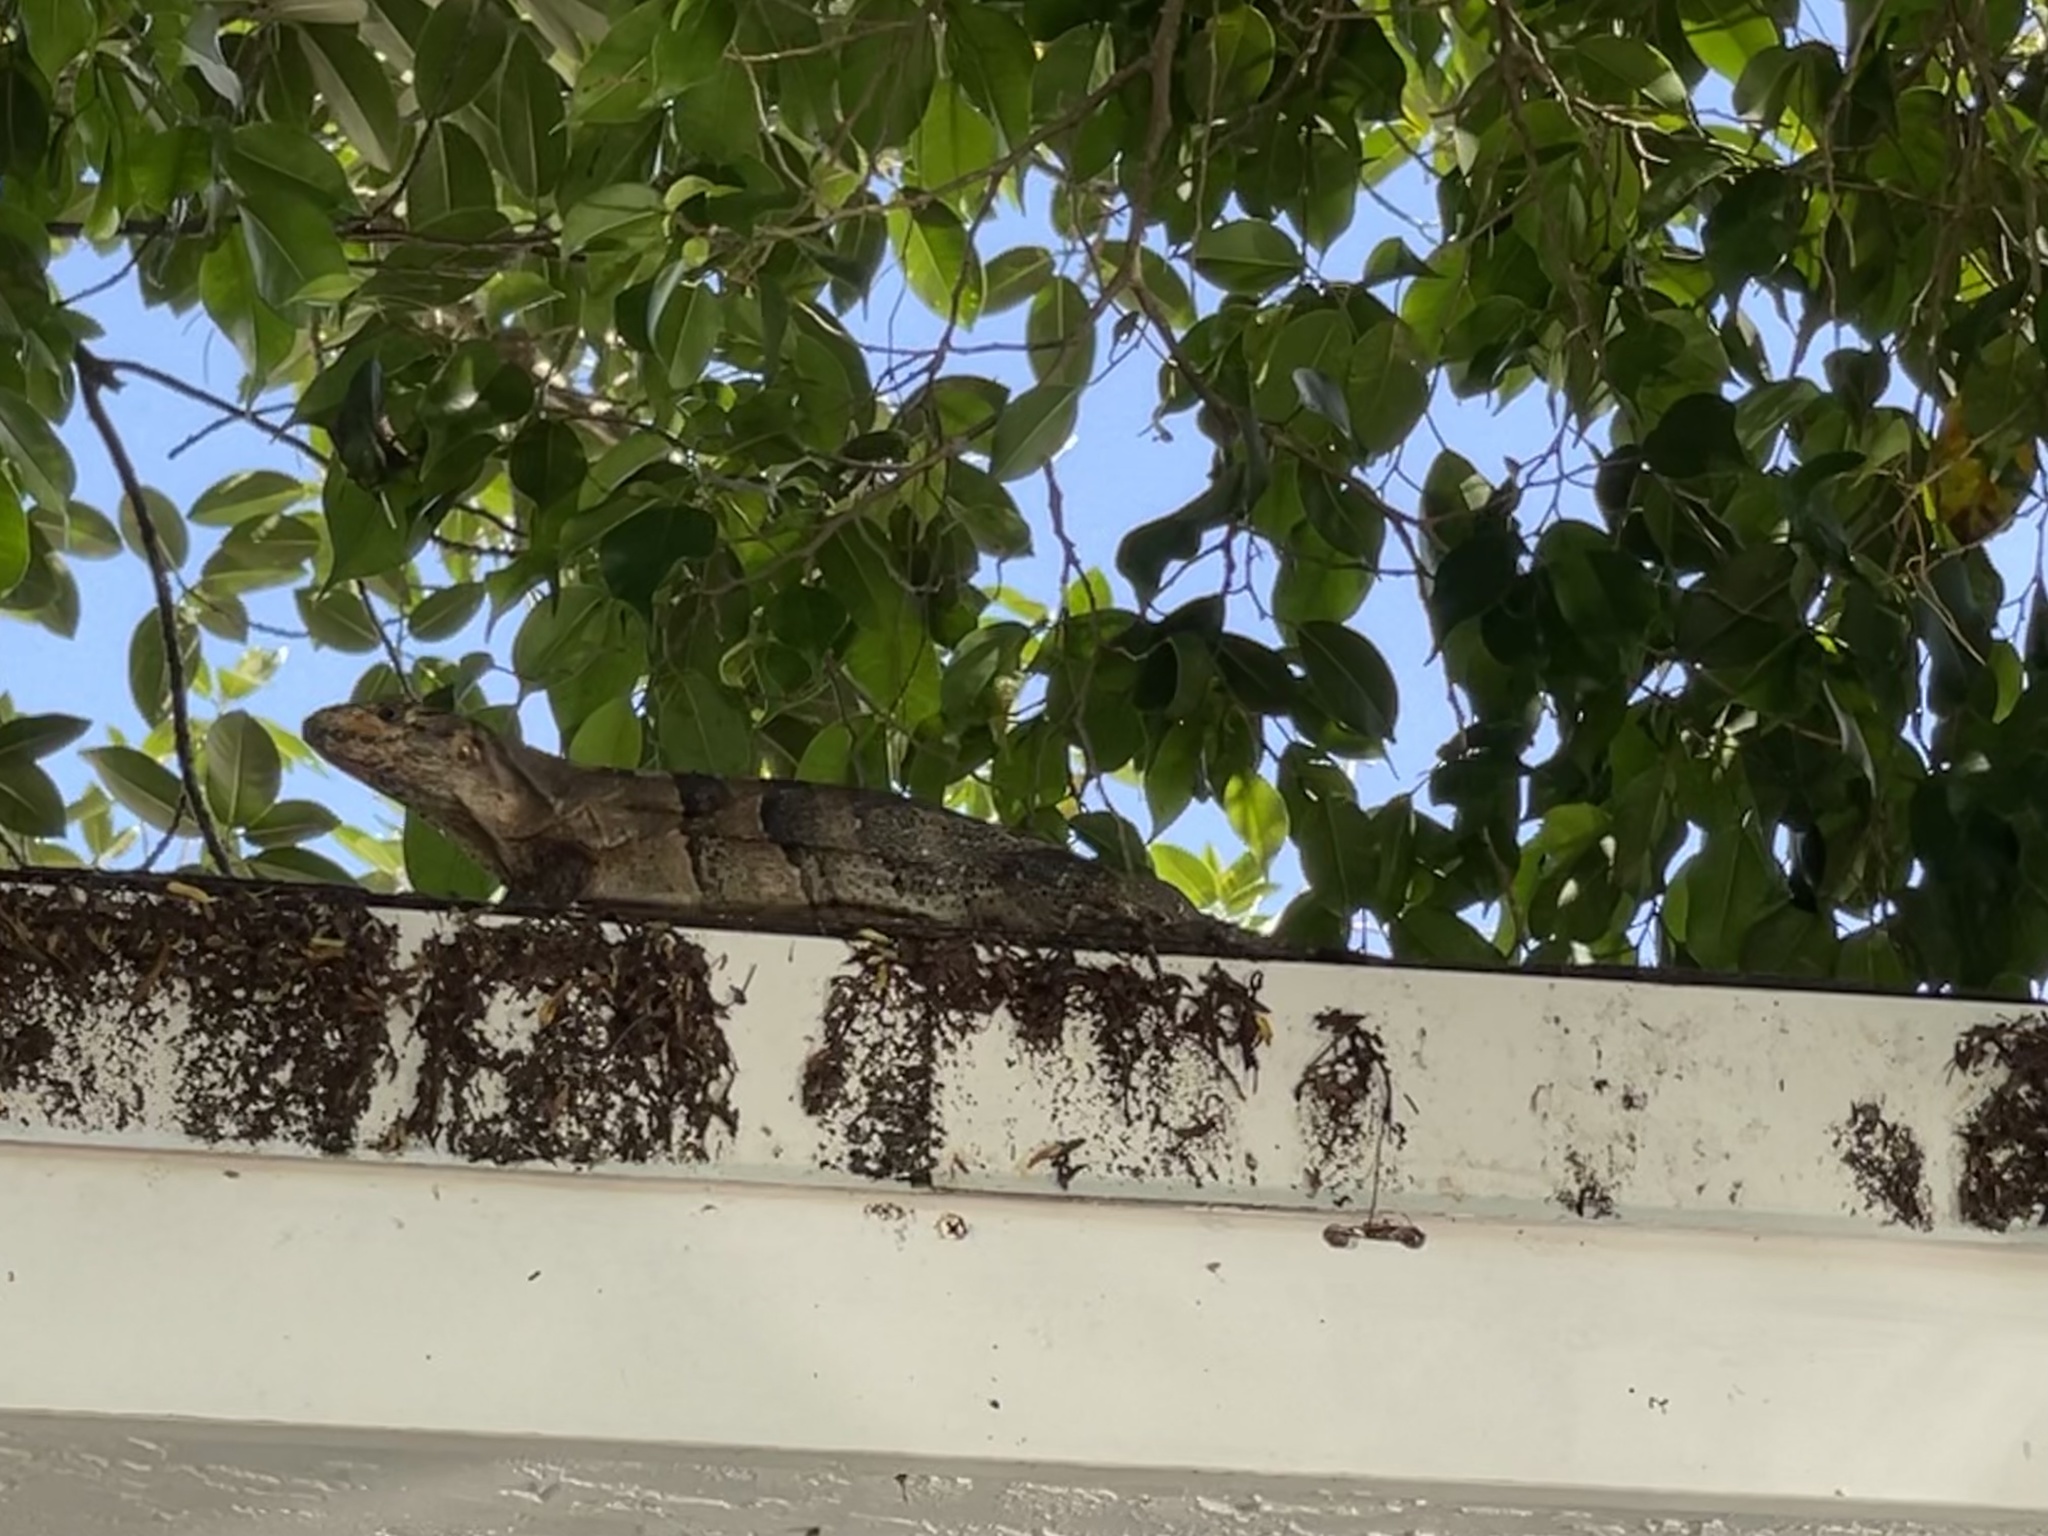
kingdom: Animalia
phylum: Chordata
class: Squamata
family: Iguanidae
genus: Ctenosaura
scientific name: Ctenosaura similis
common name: Black spiny-tailed iguana
